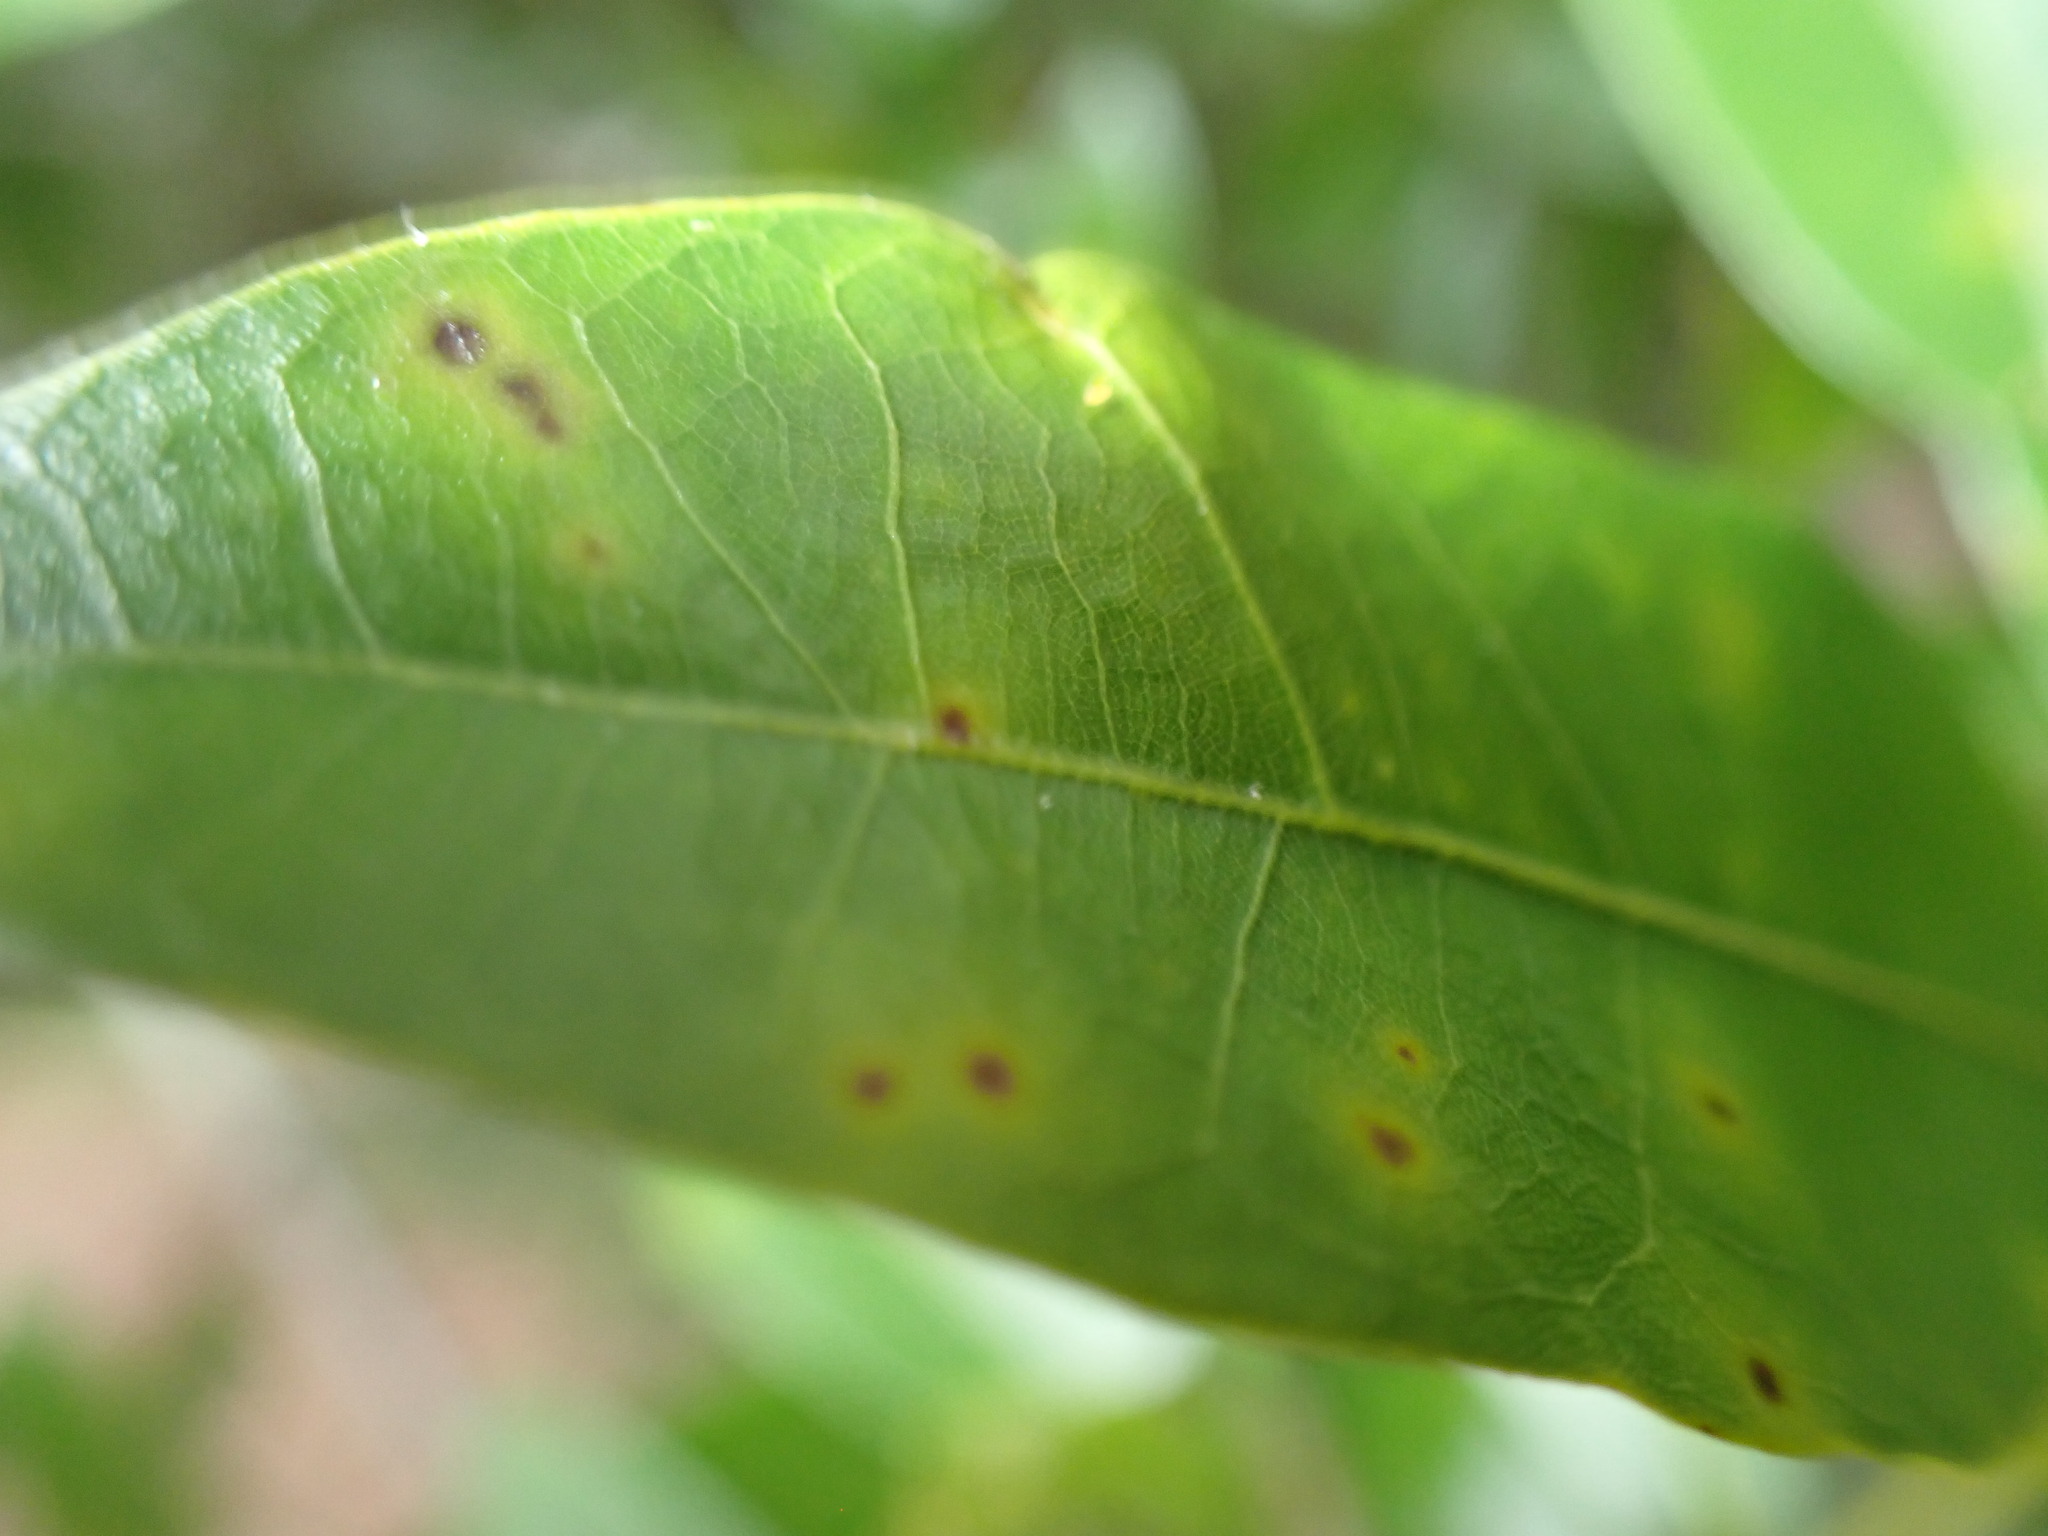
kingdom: Animalia
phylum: Arthropoda
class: Insecta
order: Hymenoptera
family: Cynipidae
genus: Amphibolips
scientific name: Amphibolips
